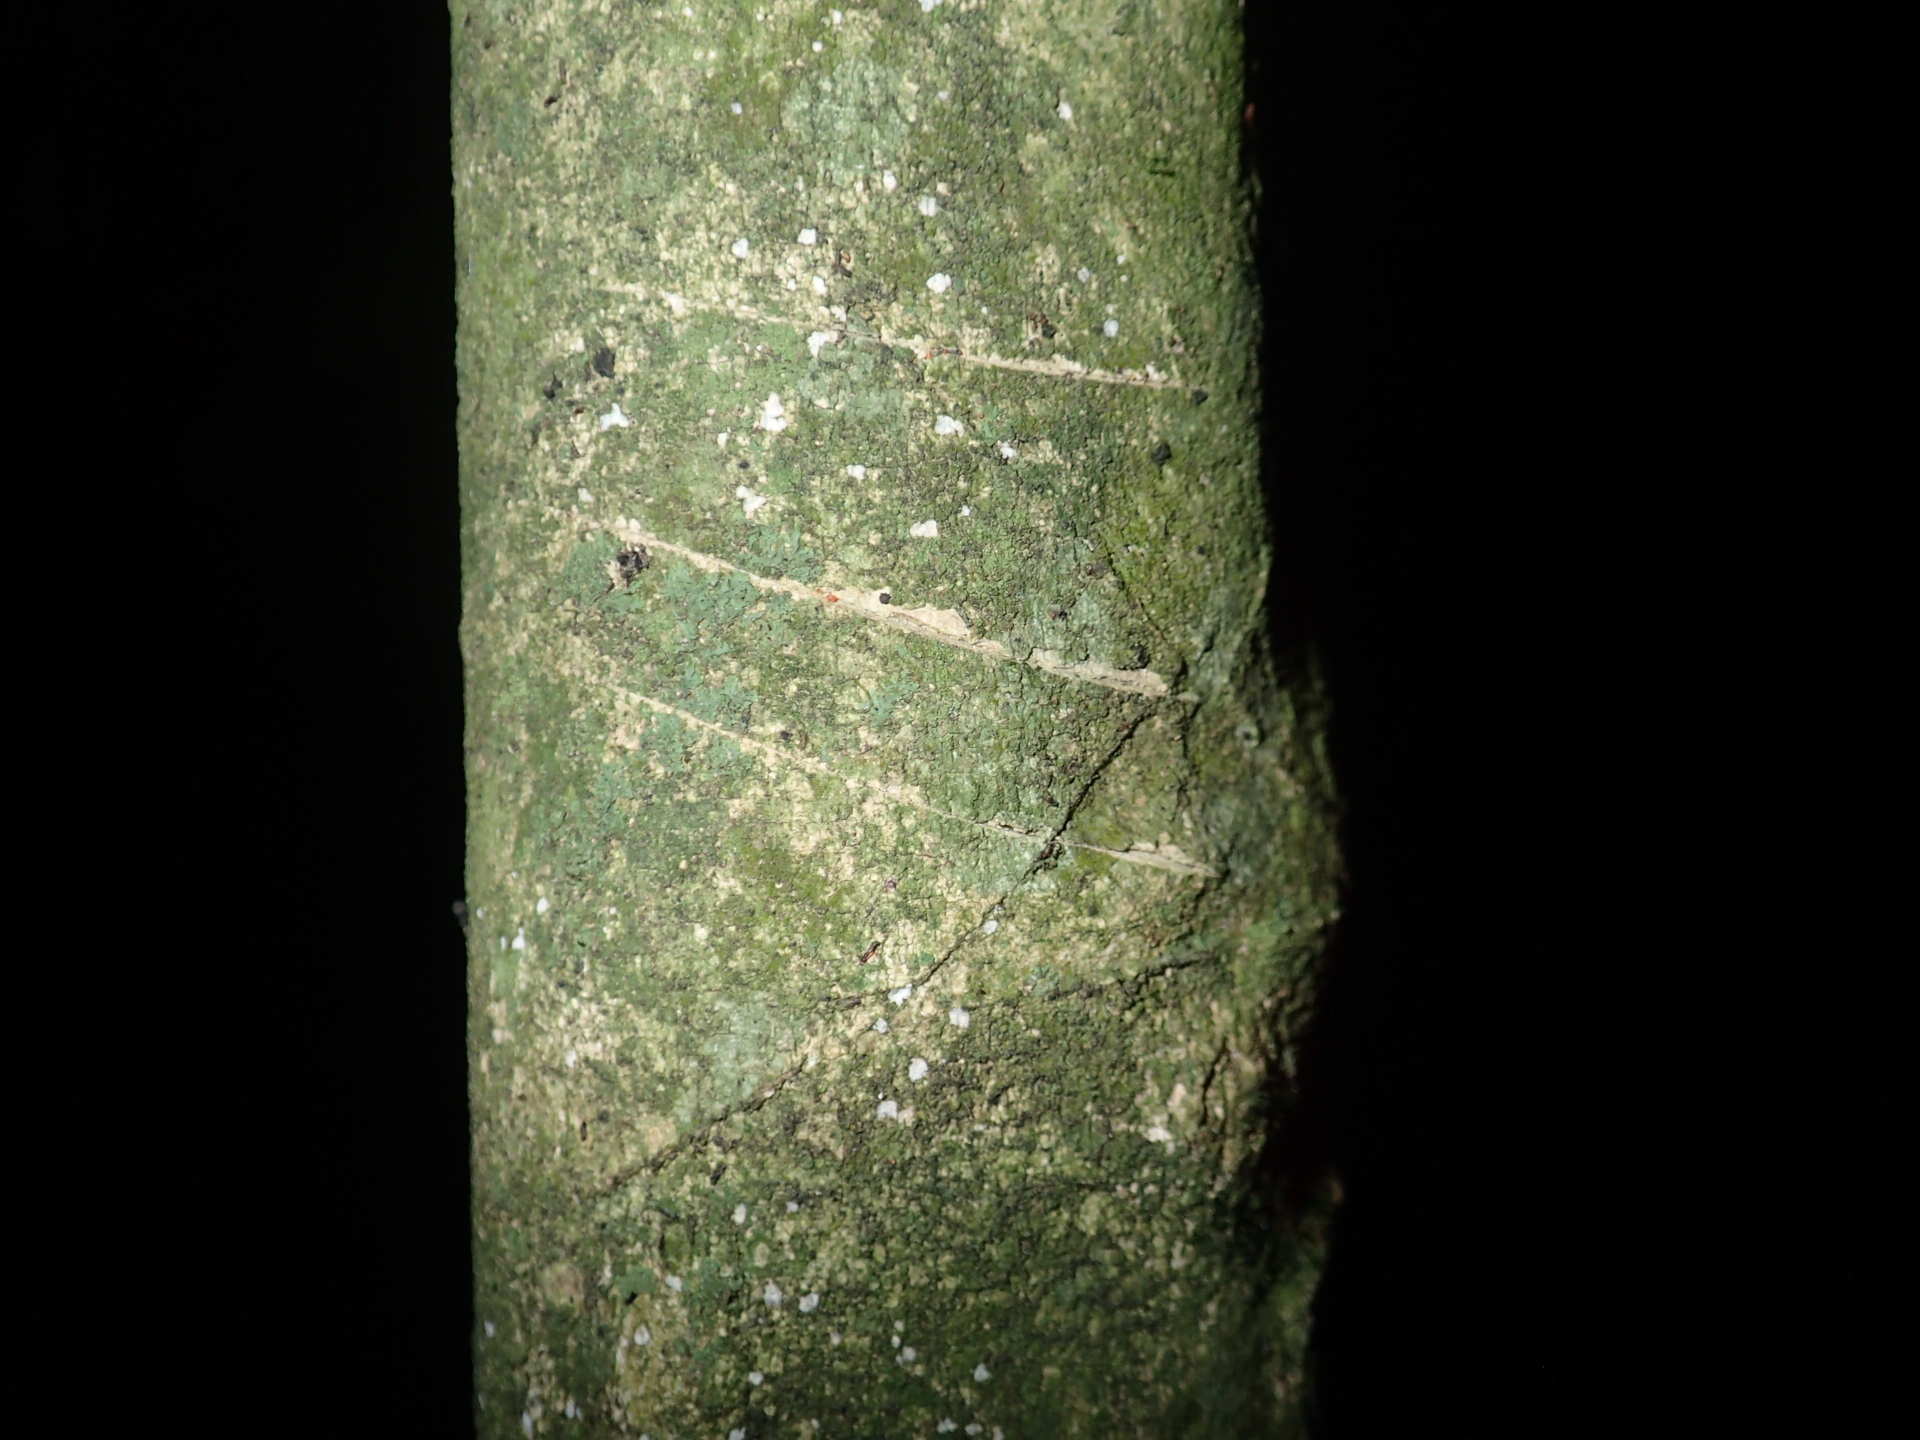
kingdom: Animalia
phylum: Chordata
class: Mammalia
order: Diprotodontia
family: Phalangeridae
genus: Trichosurus
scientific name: Trichosurus vulpecula
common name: Common brushtail
